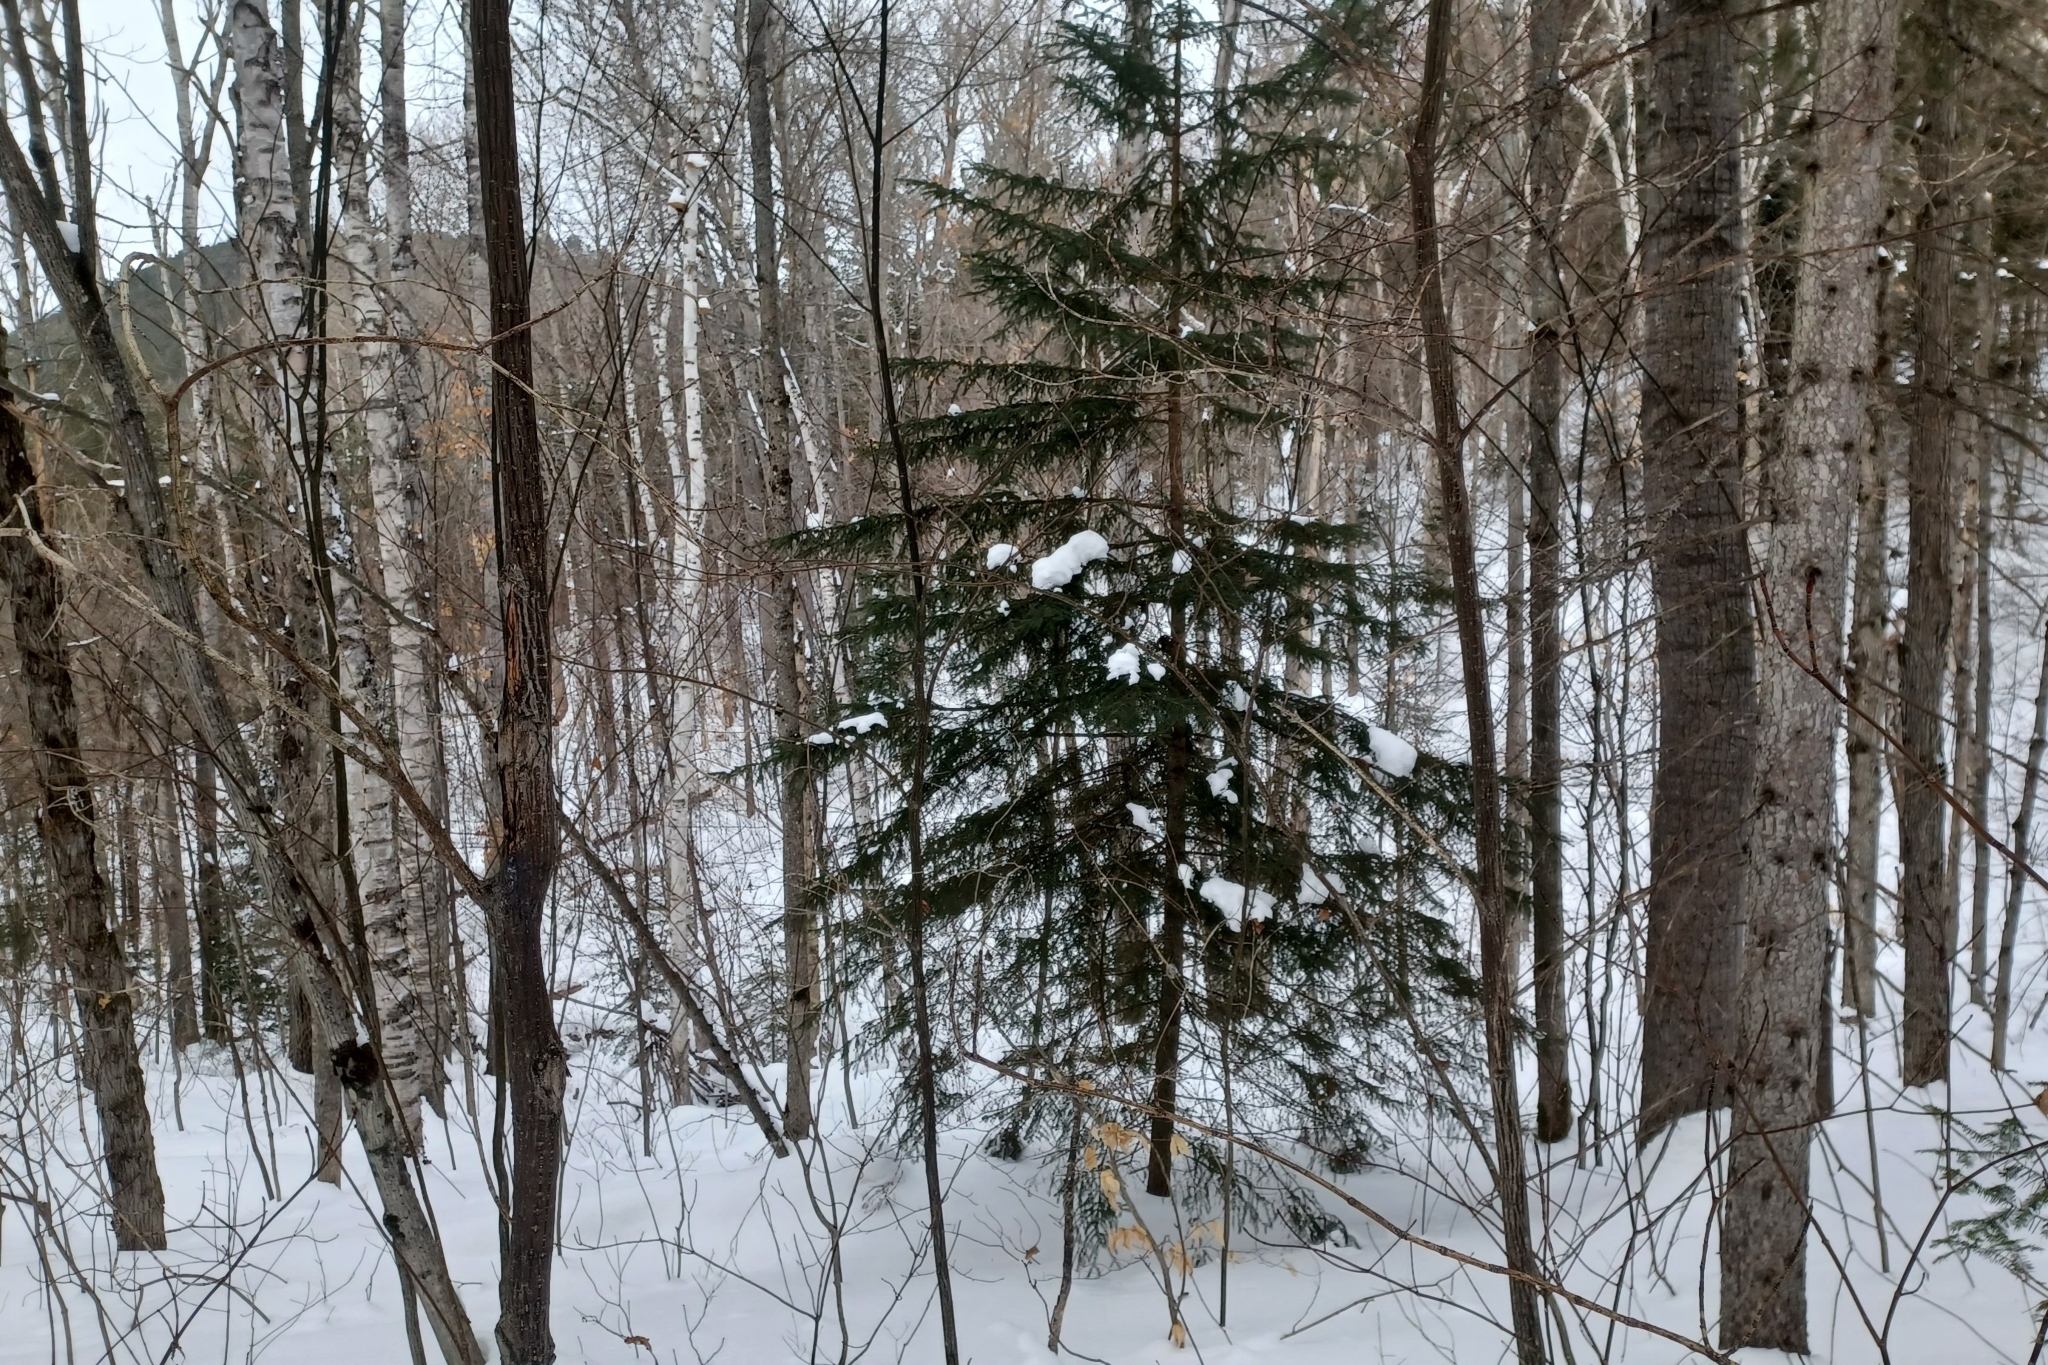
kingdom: Plantae
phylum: Tracheophyta
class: Pinopsida
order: Pinales
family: Pinaceae
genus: Picea
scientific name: Picea rubens
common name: Red spruce
